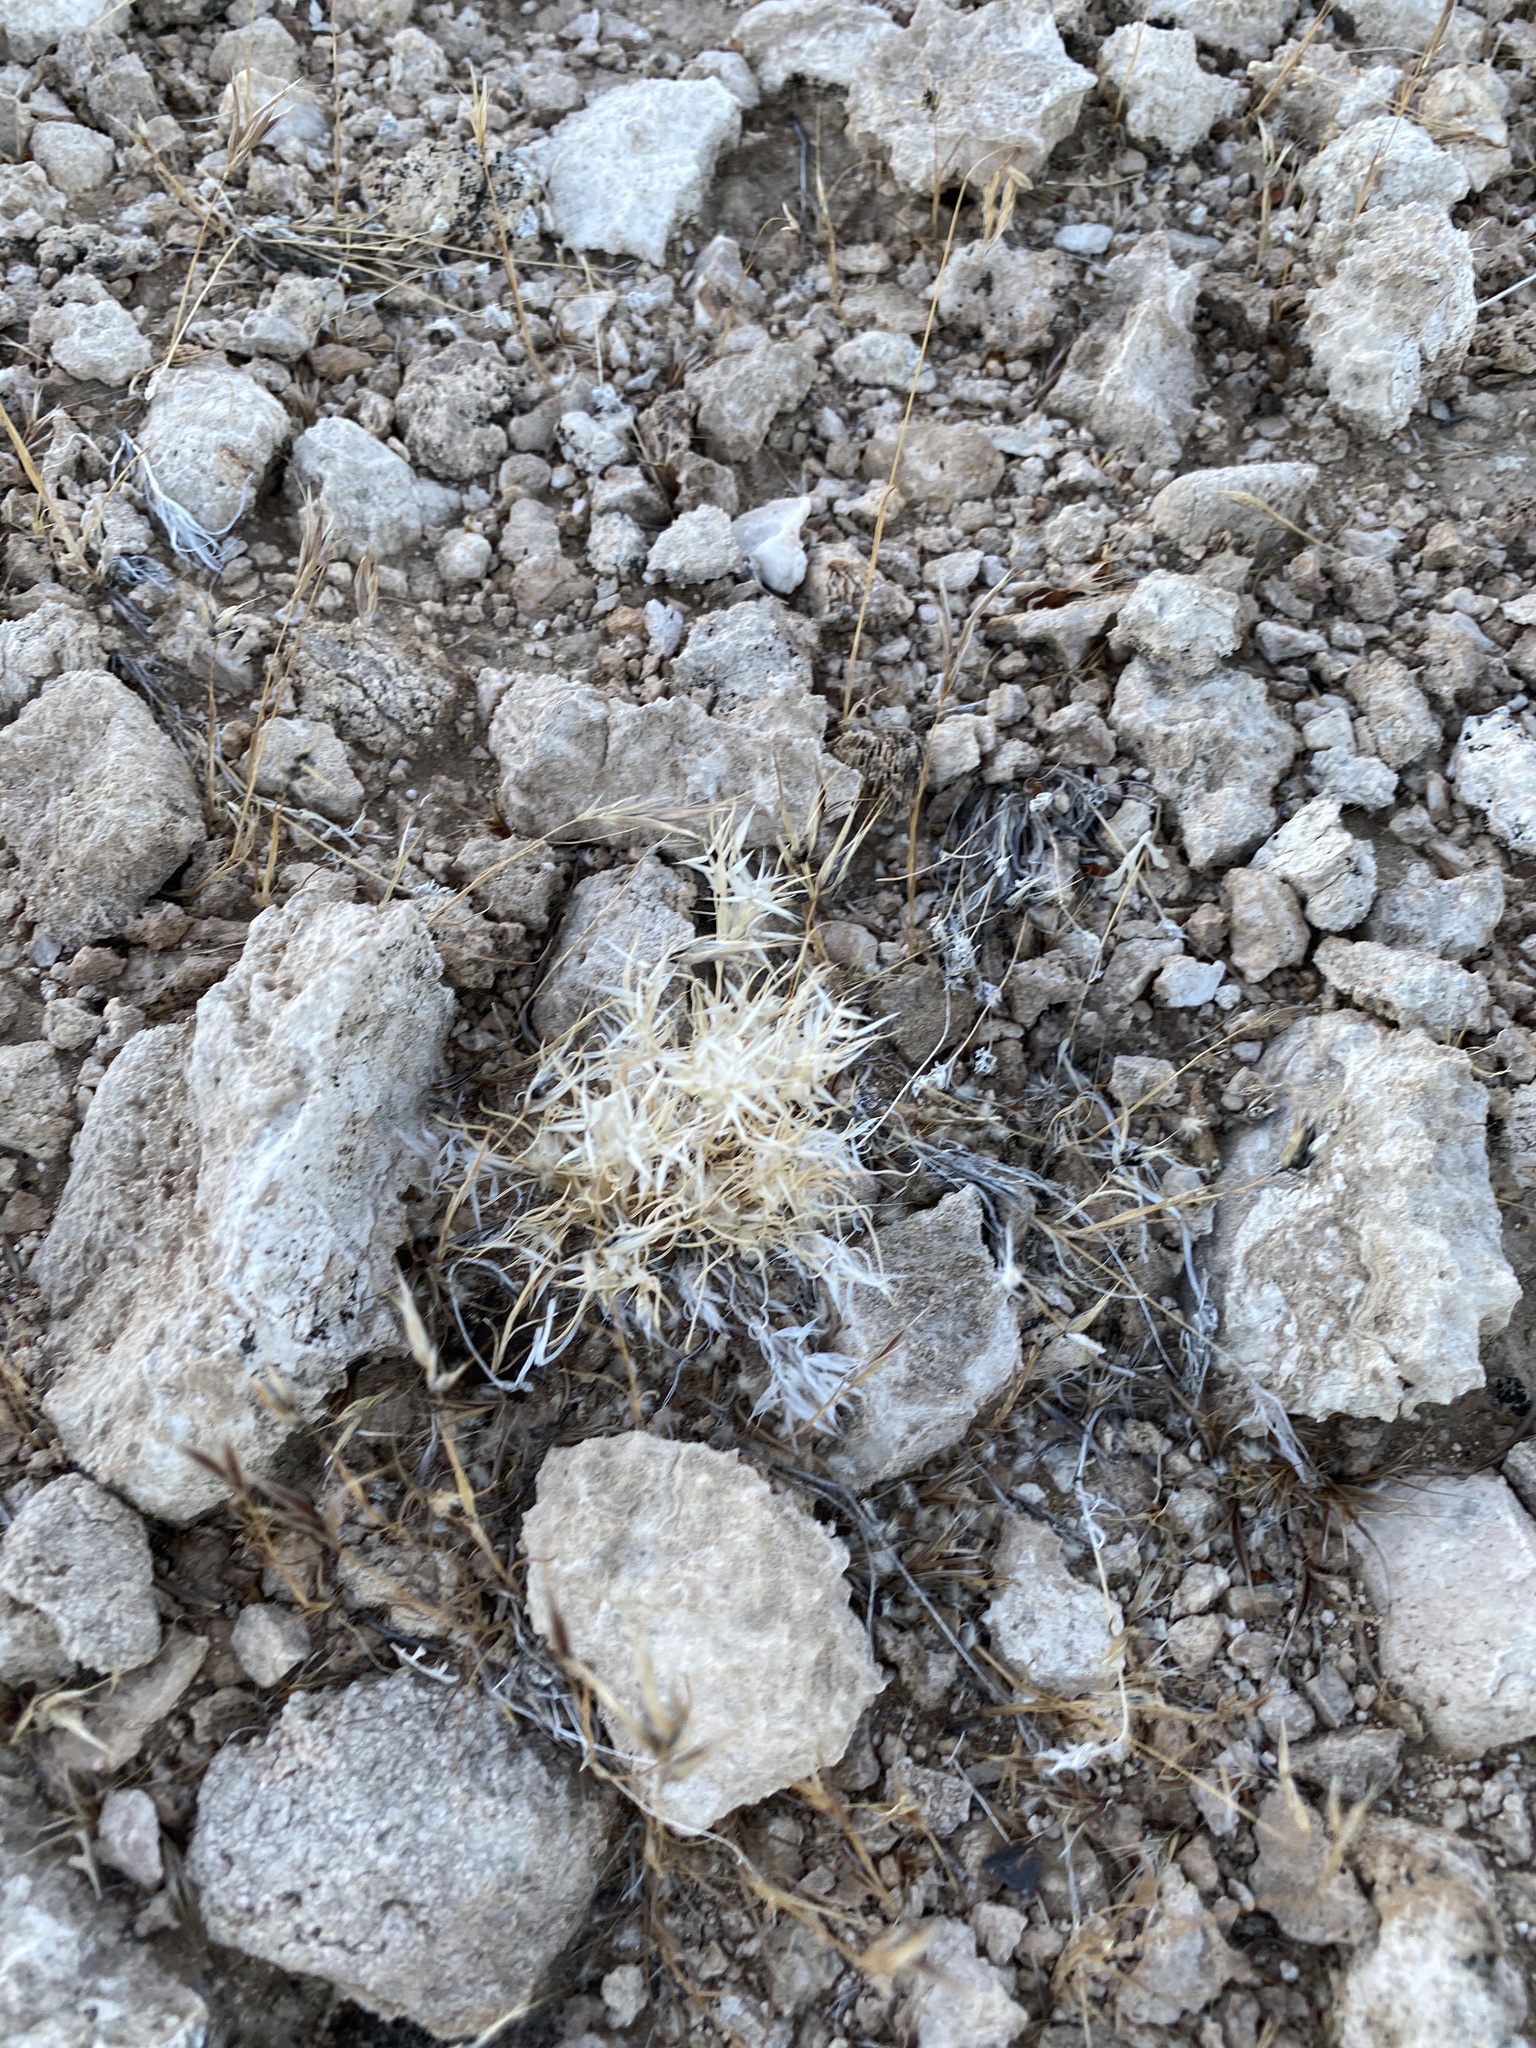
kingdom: Plantae
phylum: Tracheophyta
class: Liliopsida
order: Poales
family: Poaceae
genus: Dasyochloa
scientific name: Dasyochloa pulchella
